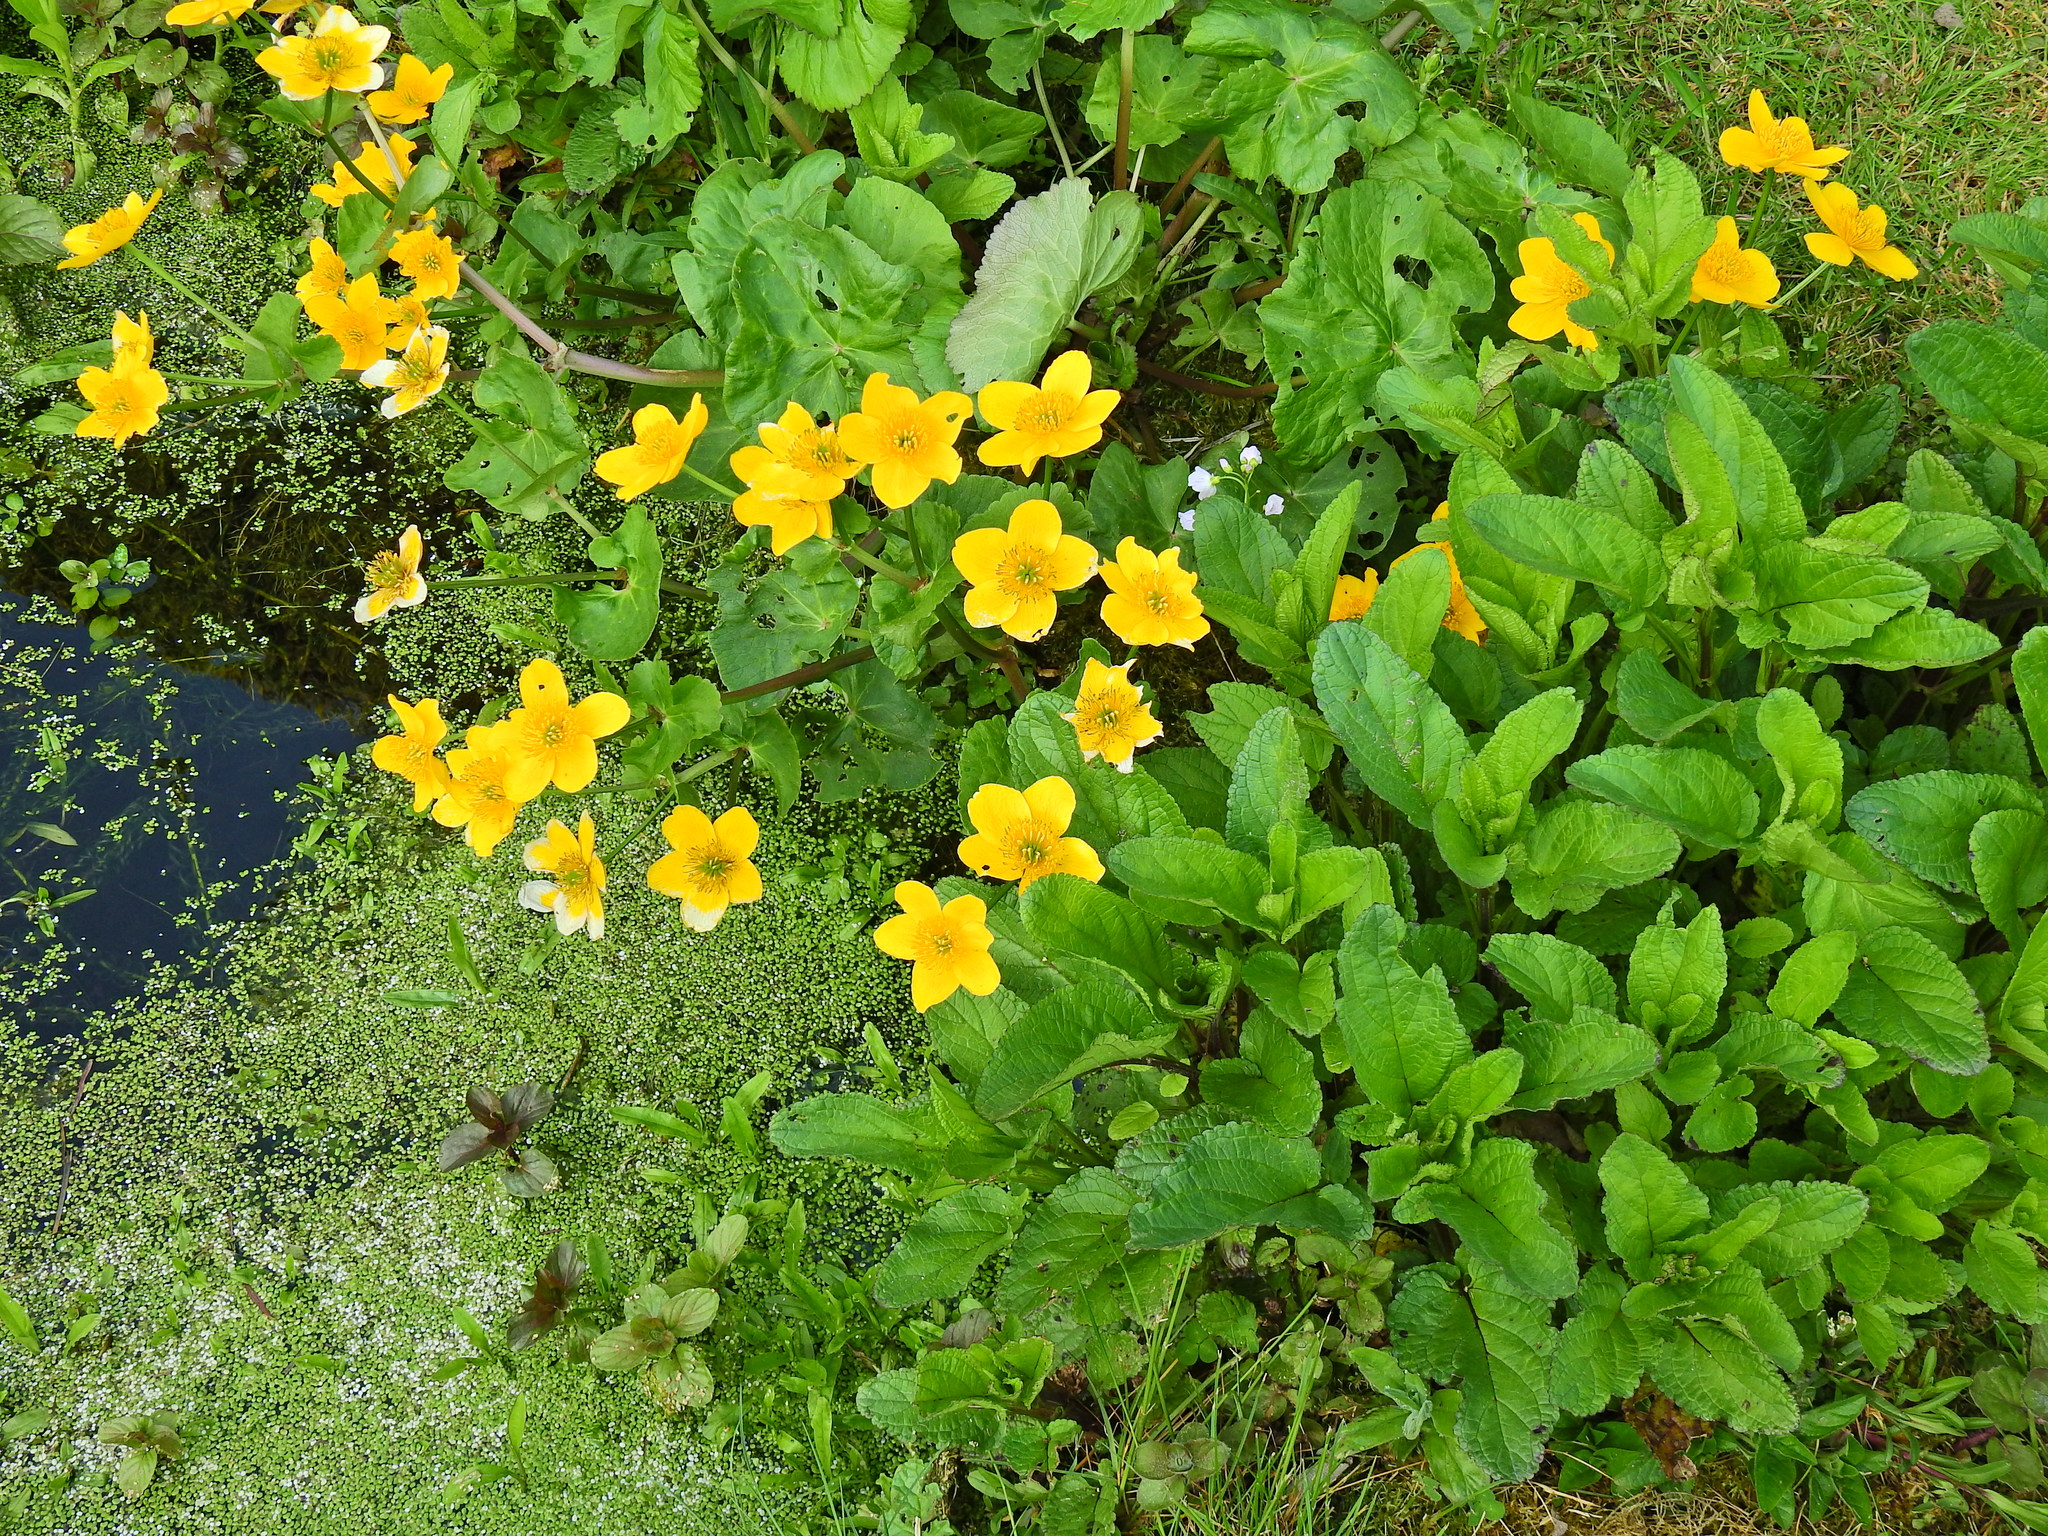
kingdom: Plantae
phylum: Tracheophyta
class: Magnoliopsida
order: Ranunculales
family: Ranunculaceae
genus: Caltha
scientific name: Caltha palustris
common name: Marsh marigold
